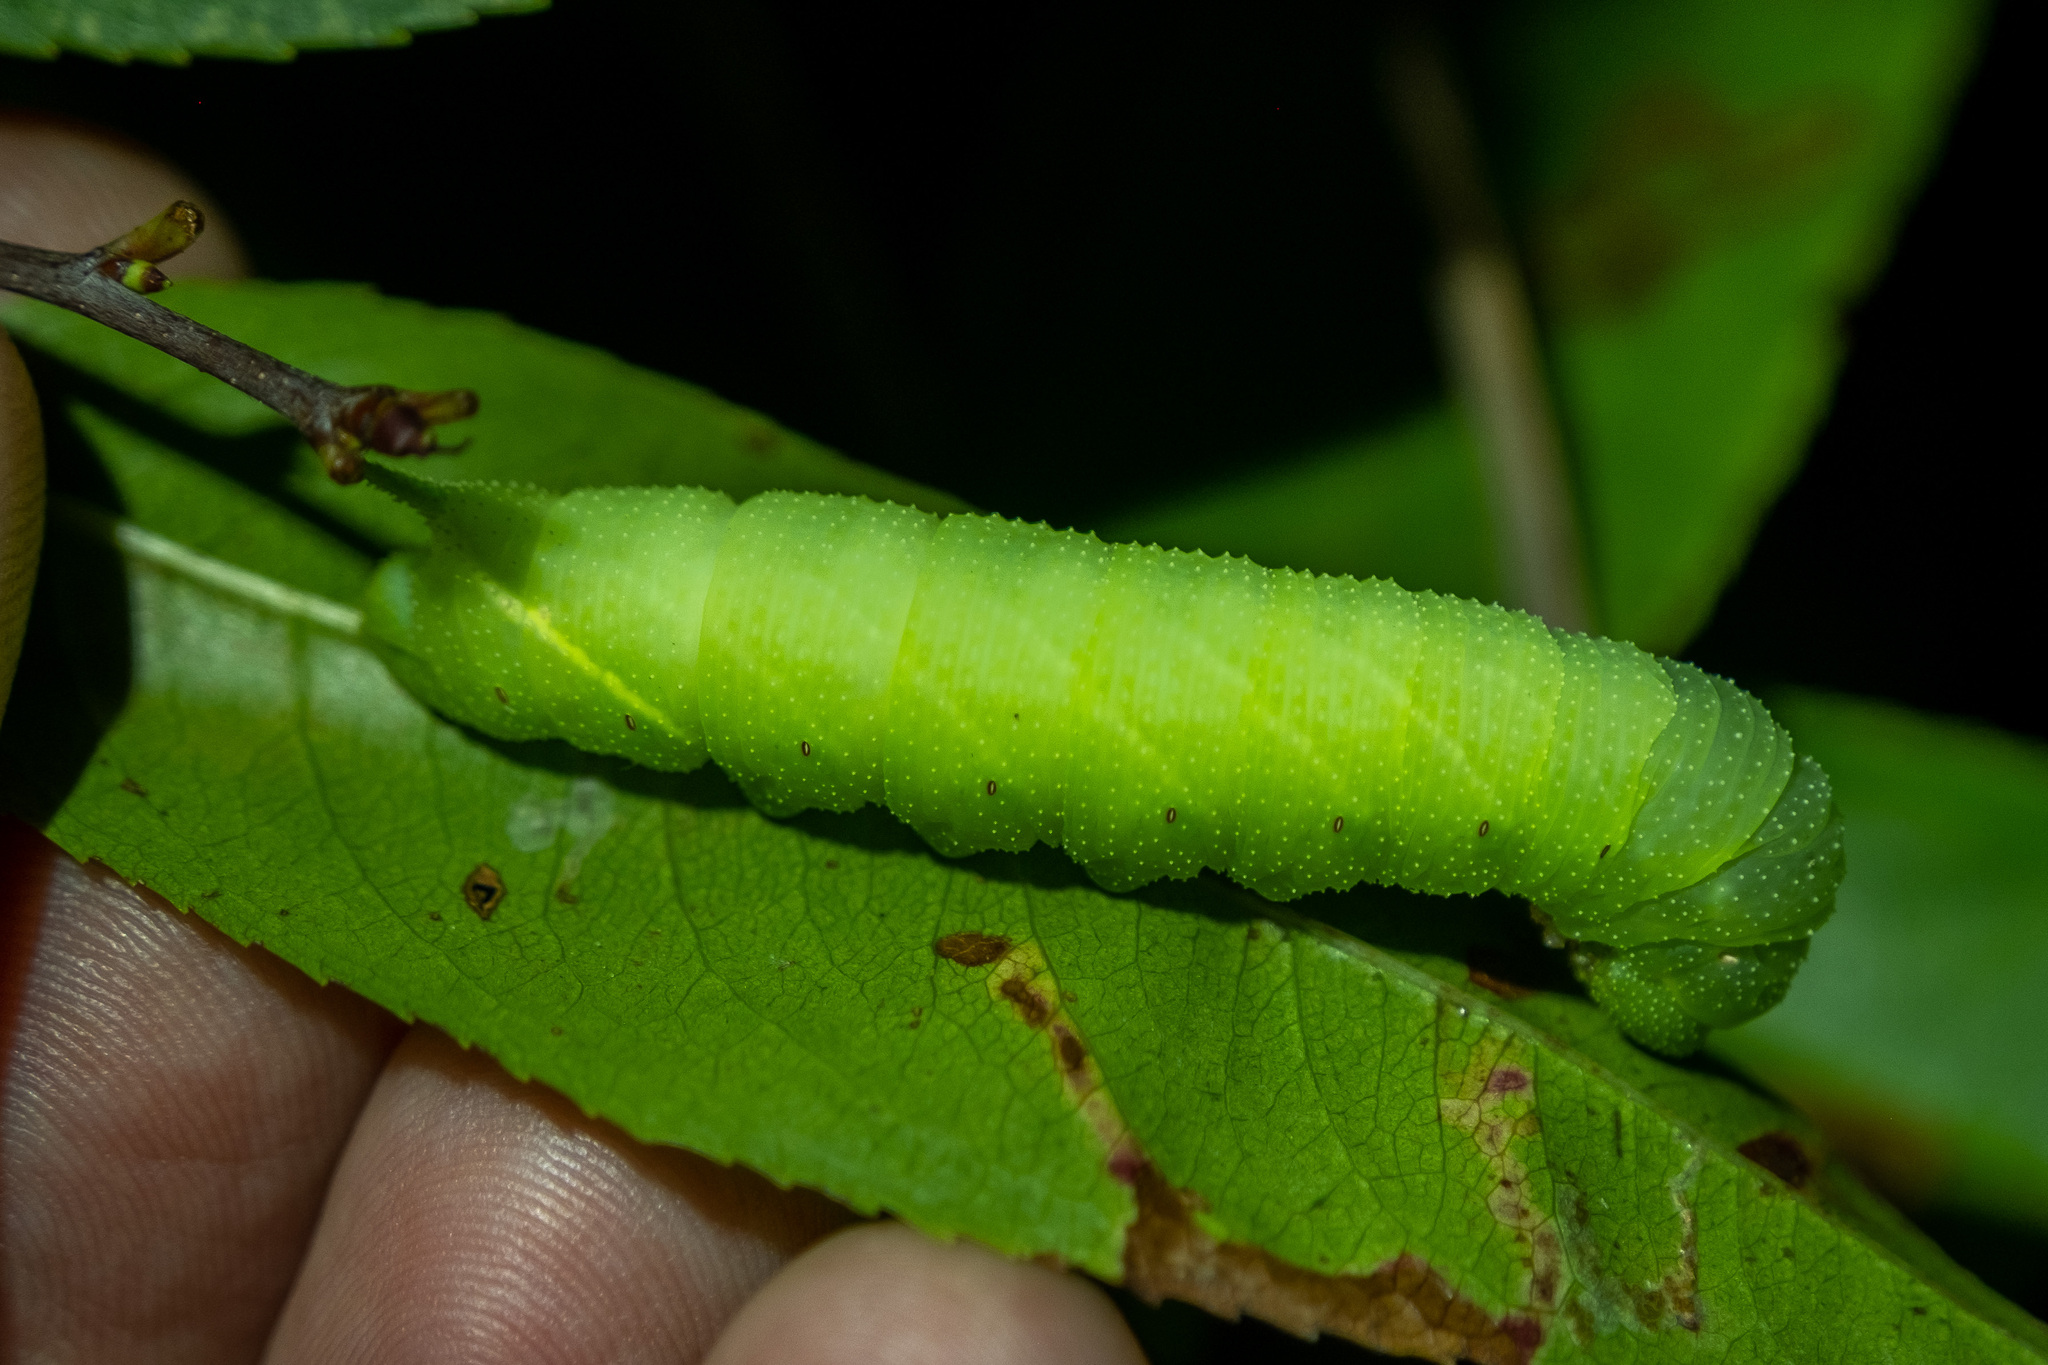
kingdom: Animalia
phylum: Arthropoda
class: Insecta
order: Lepidoptera
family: Sphingidae
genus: Paonias
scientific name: Paonias myops
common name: Small-eyed sphinx
